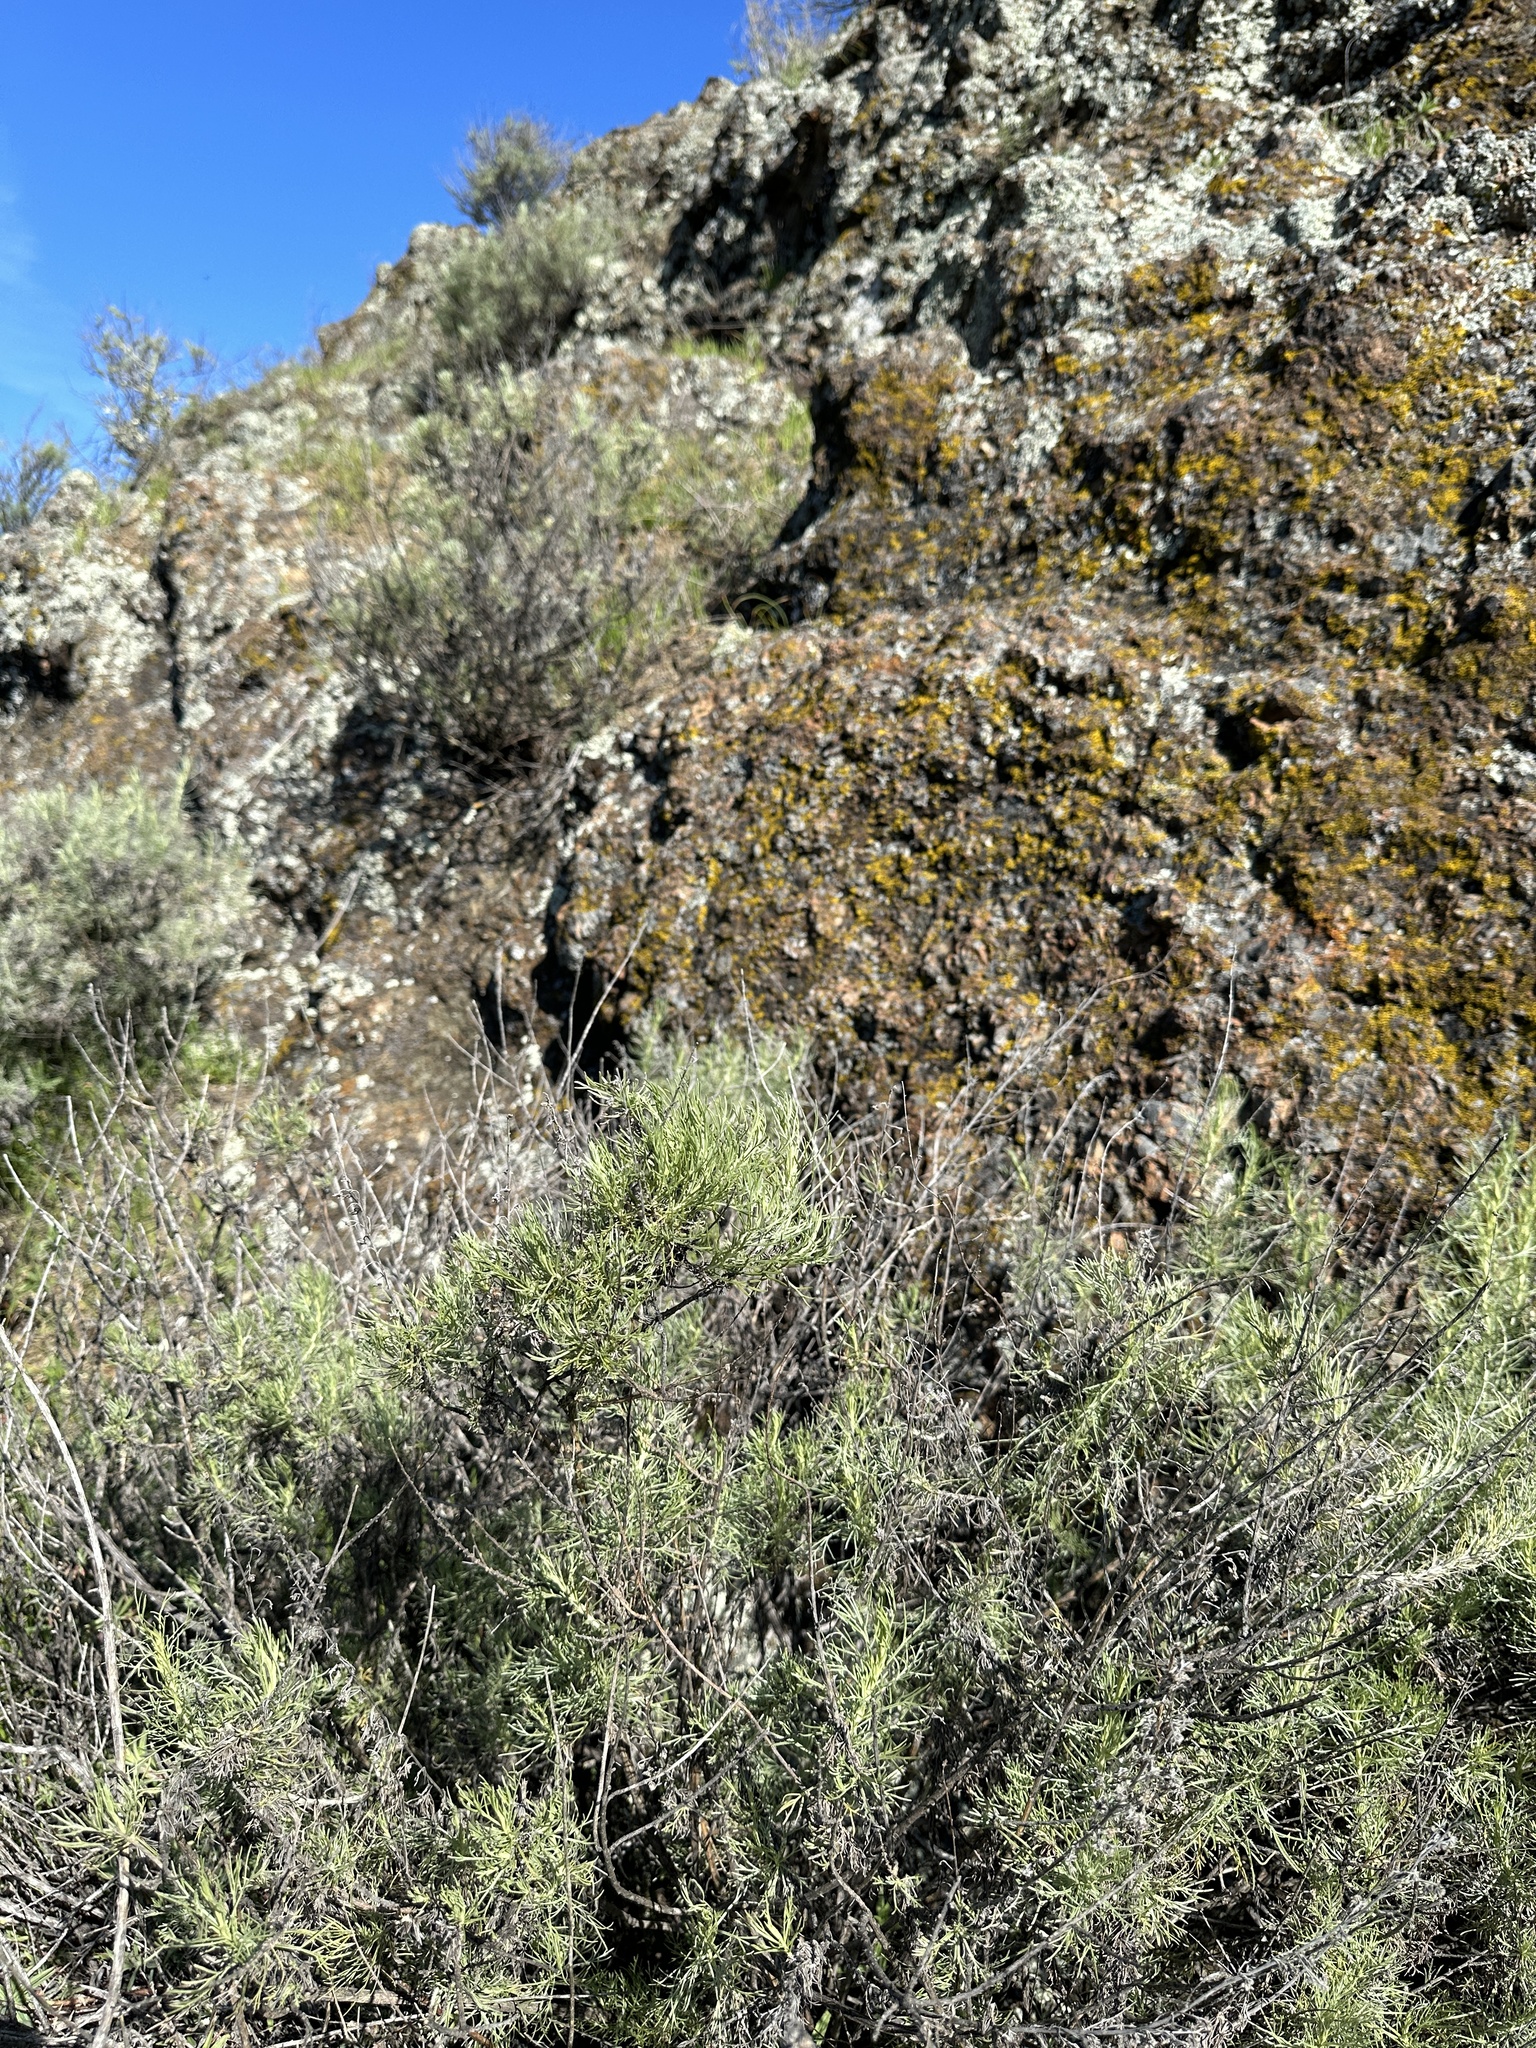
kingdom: Plantae
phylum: Tracheophyta
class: Magnoliopsida
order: Asterales
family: Asteraceae
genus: Artemisia
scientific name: Artemisia californica
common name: California sagebrush
